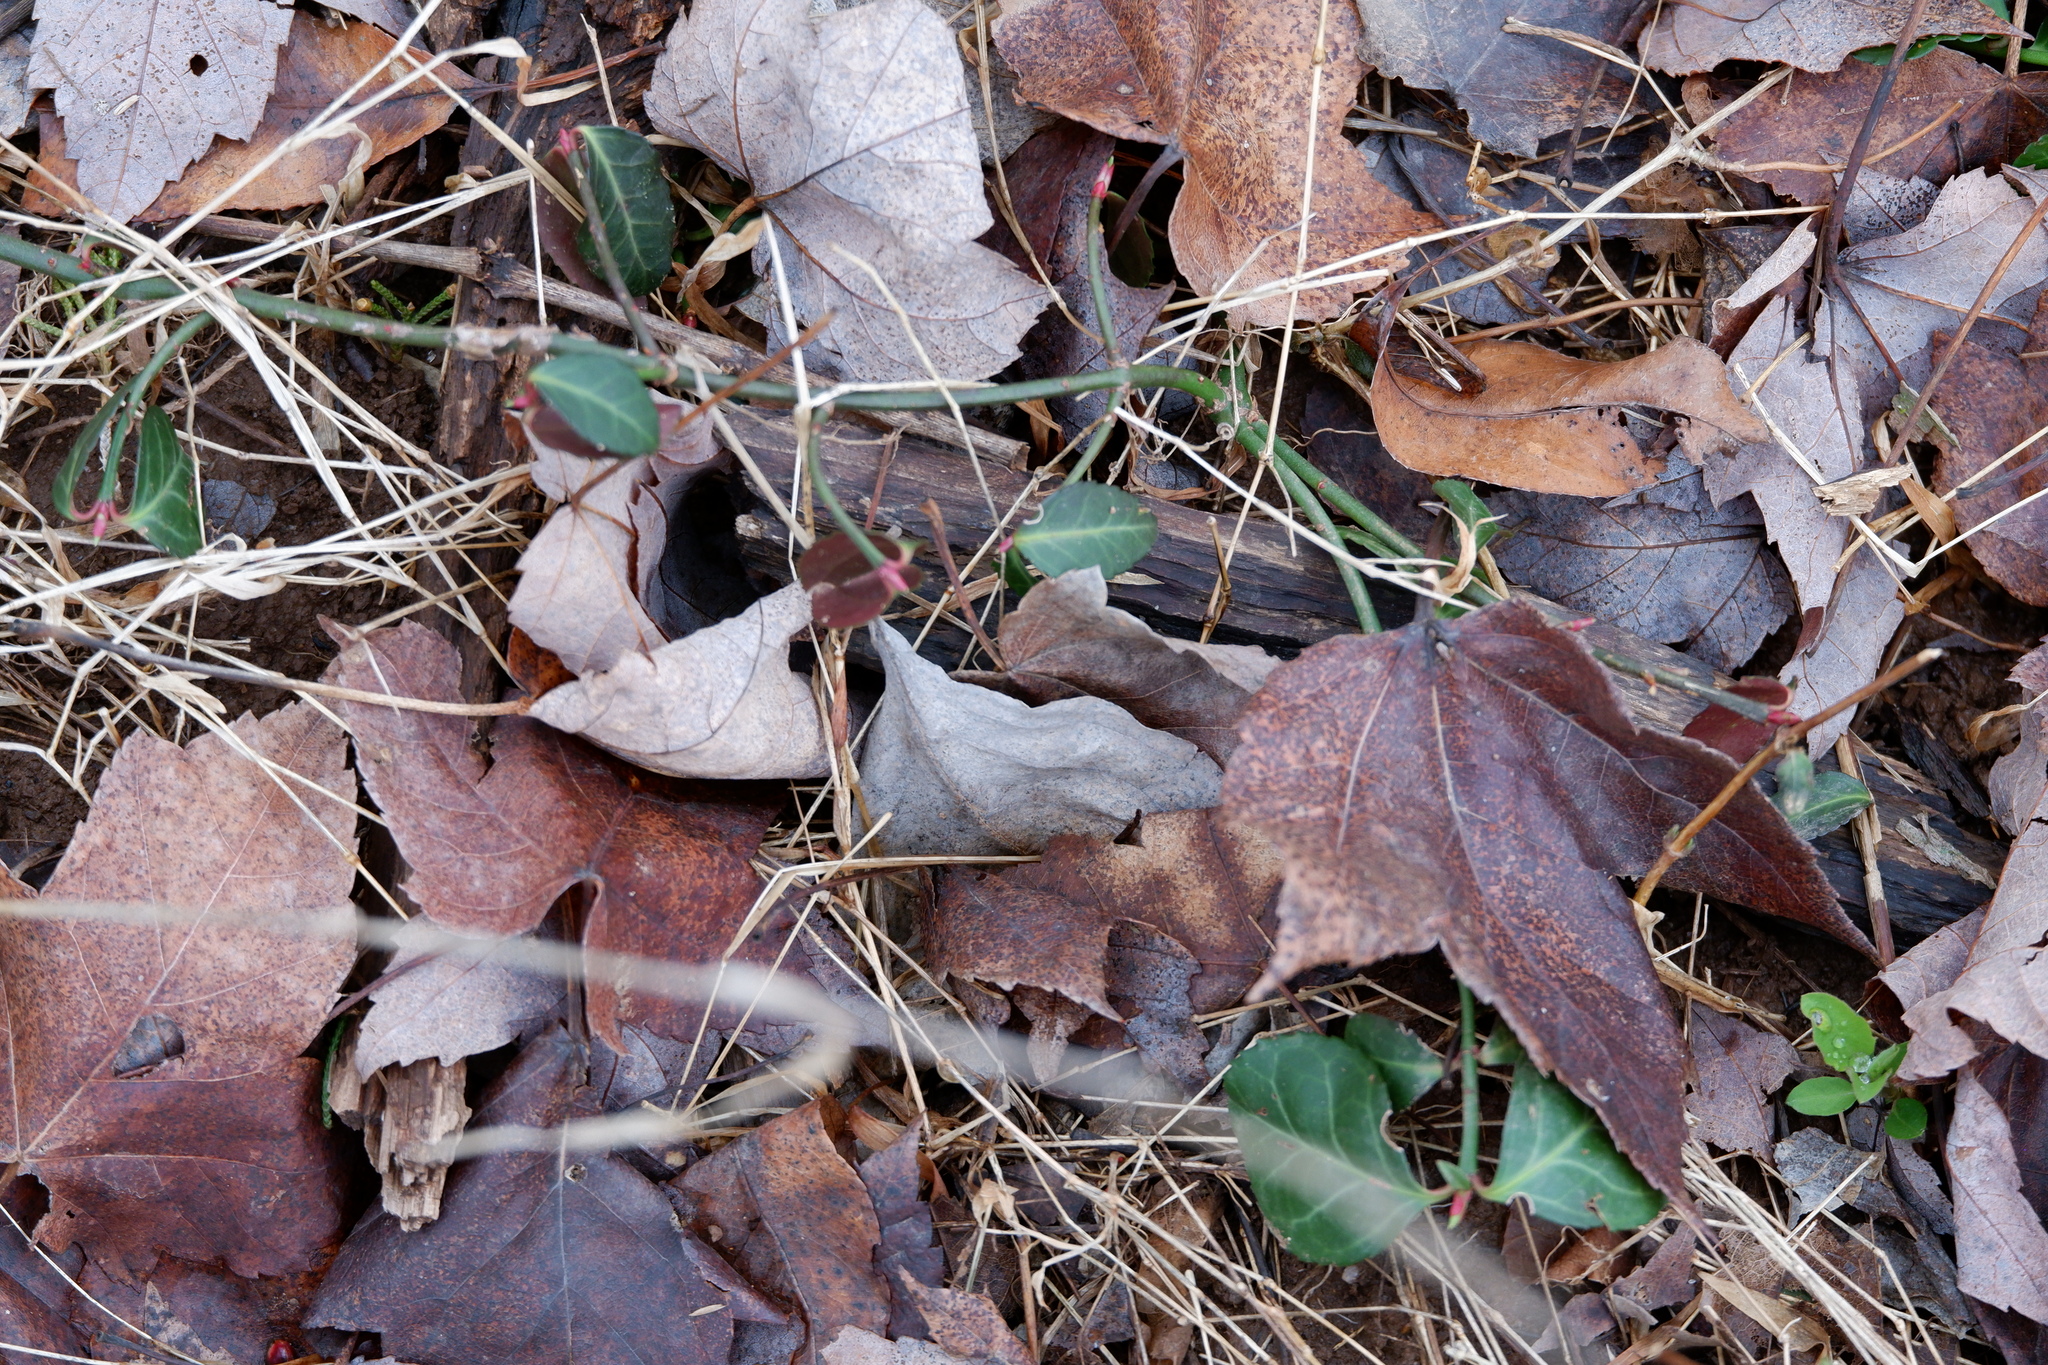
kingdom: Plantae
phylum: Tracheophyta
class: Magnoliopsida
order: Celastrales
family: Celastraceae
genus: Euonymus
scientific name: Euonymus fortunei
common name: Climbing euonymus
